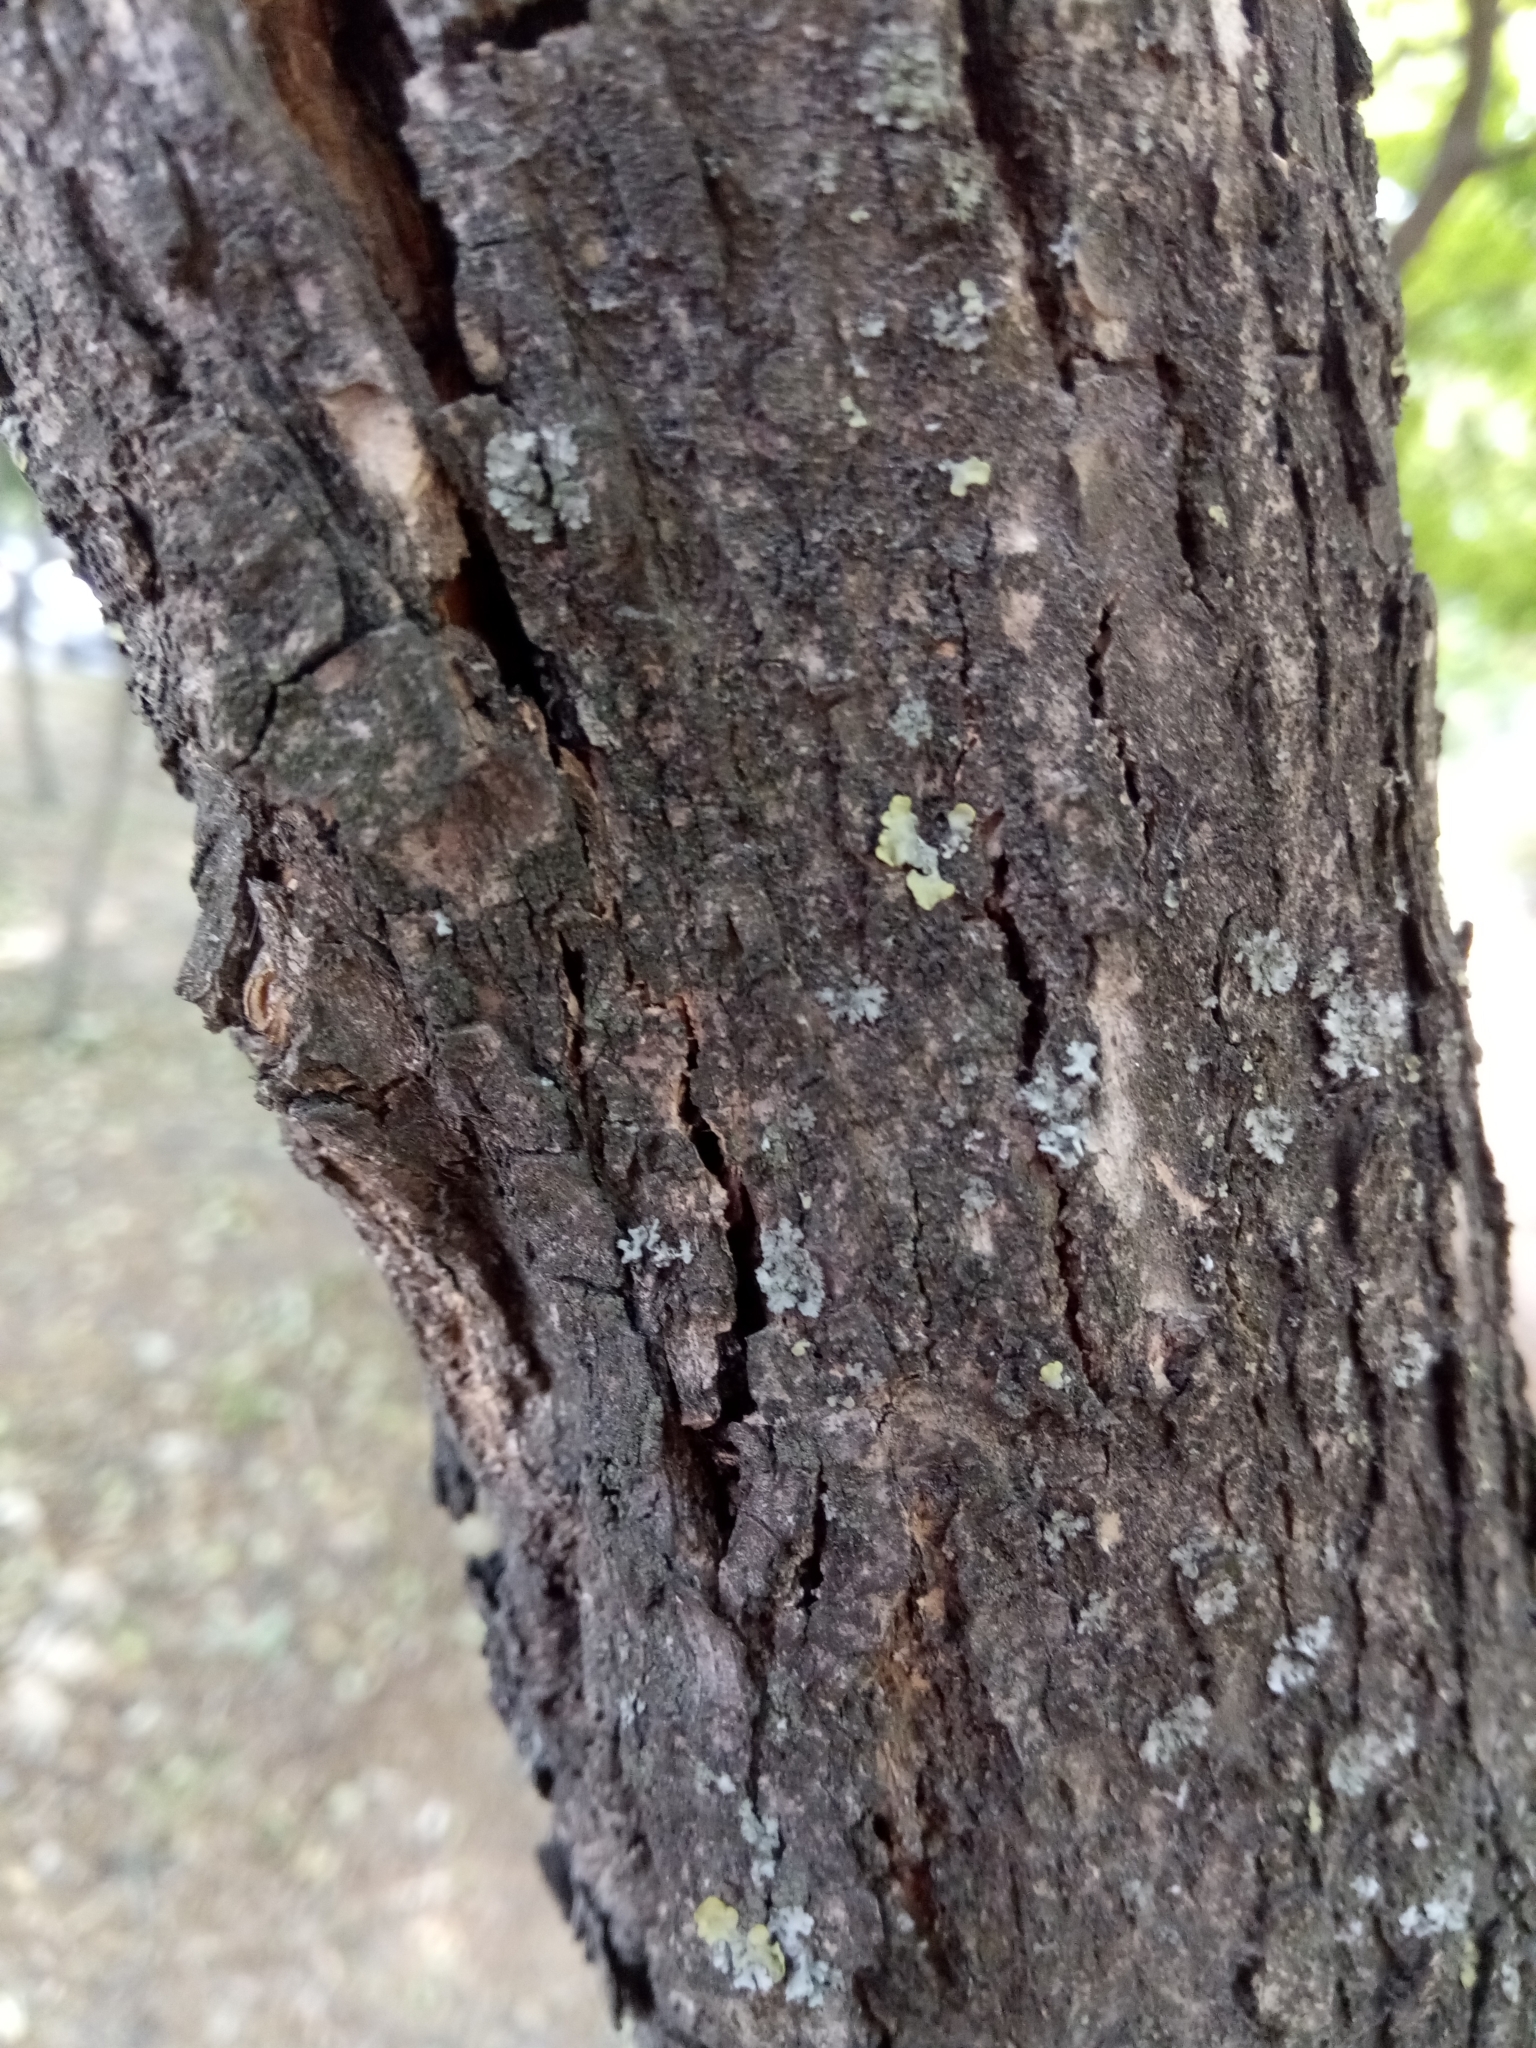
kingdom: Plantae
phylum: Tracheophyta
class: Magnoliopsida
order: Lamiales
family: Oleaceae
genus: Fraxinus
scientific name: Fraxinus excelsior
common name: European ash
